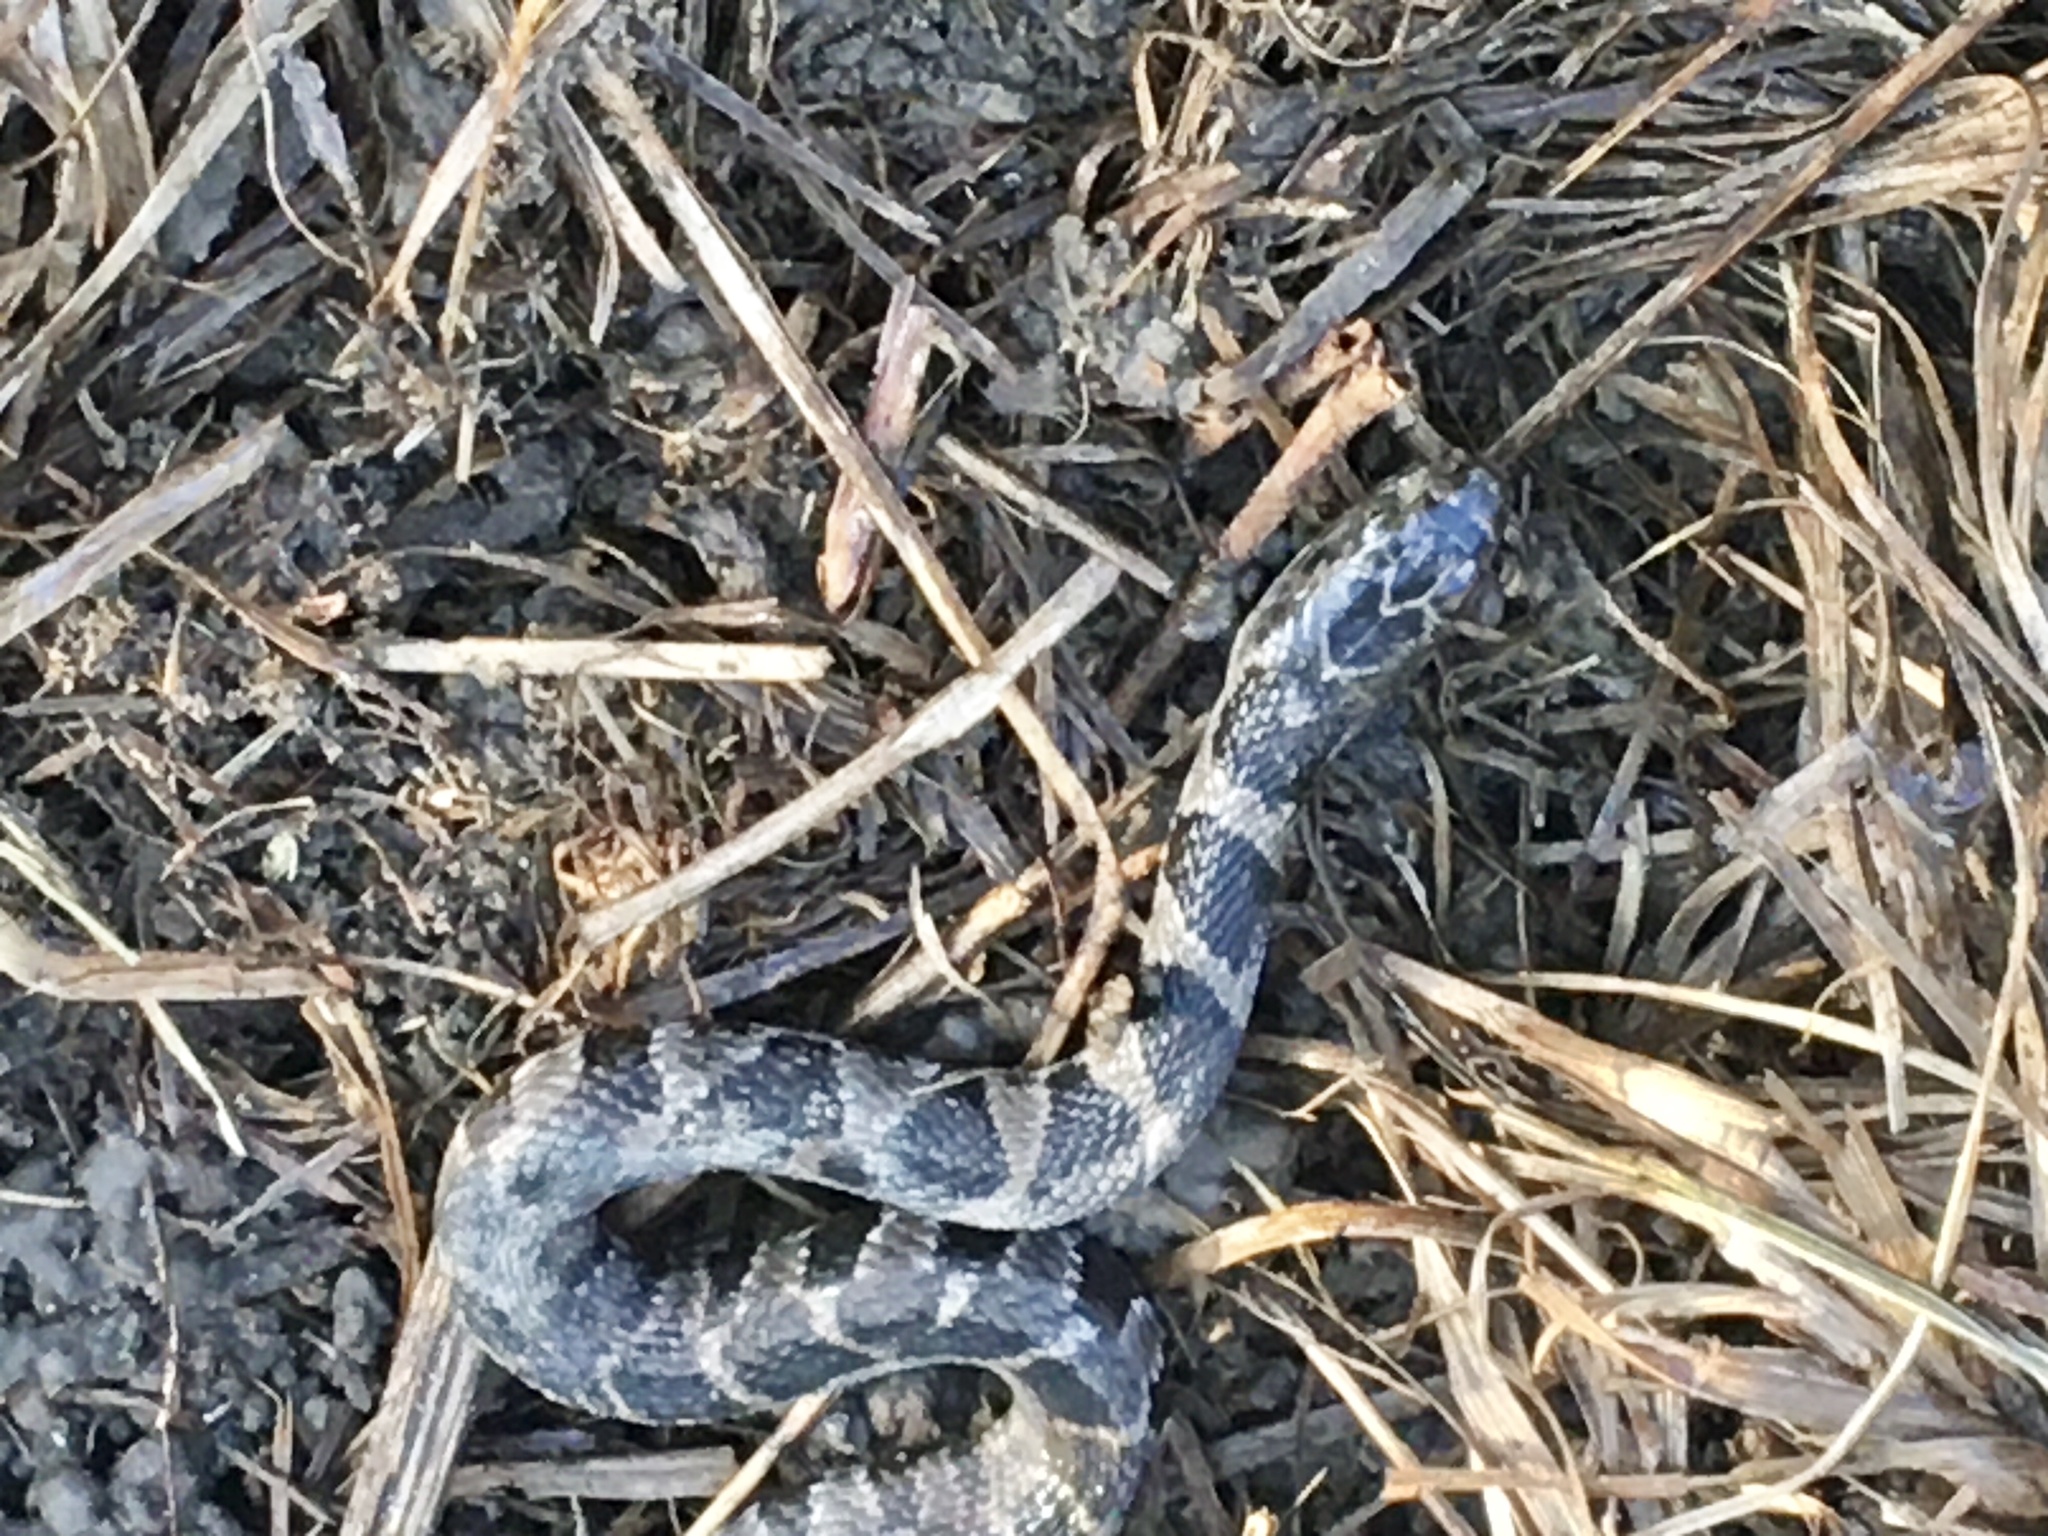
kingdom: Animalia
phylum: Chordata
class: Squamata
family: Colubridae
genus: Nerodia
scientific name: Nerodia sipedon
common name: Northern water snake
